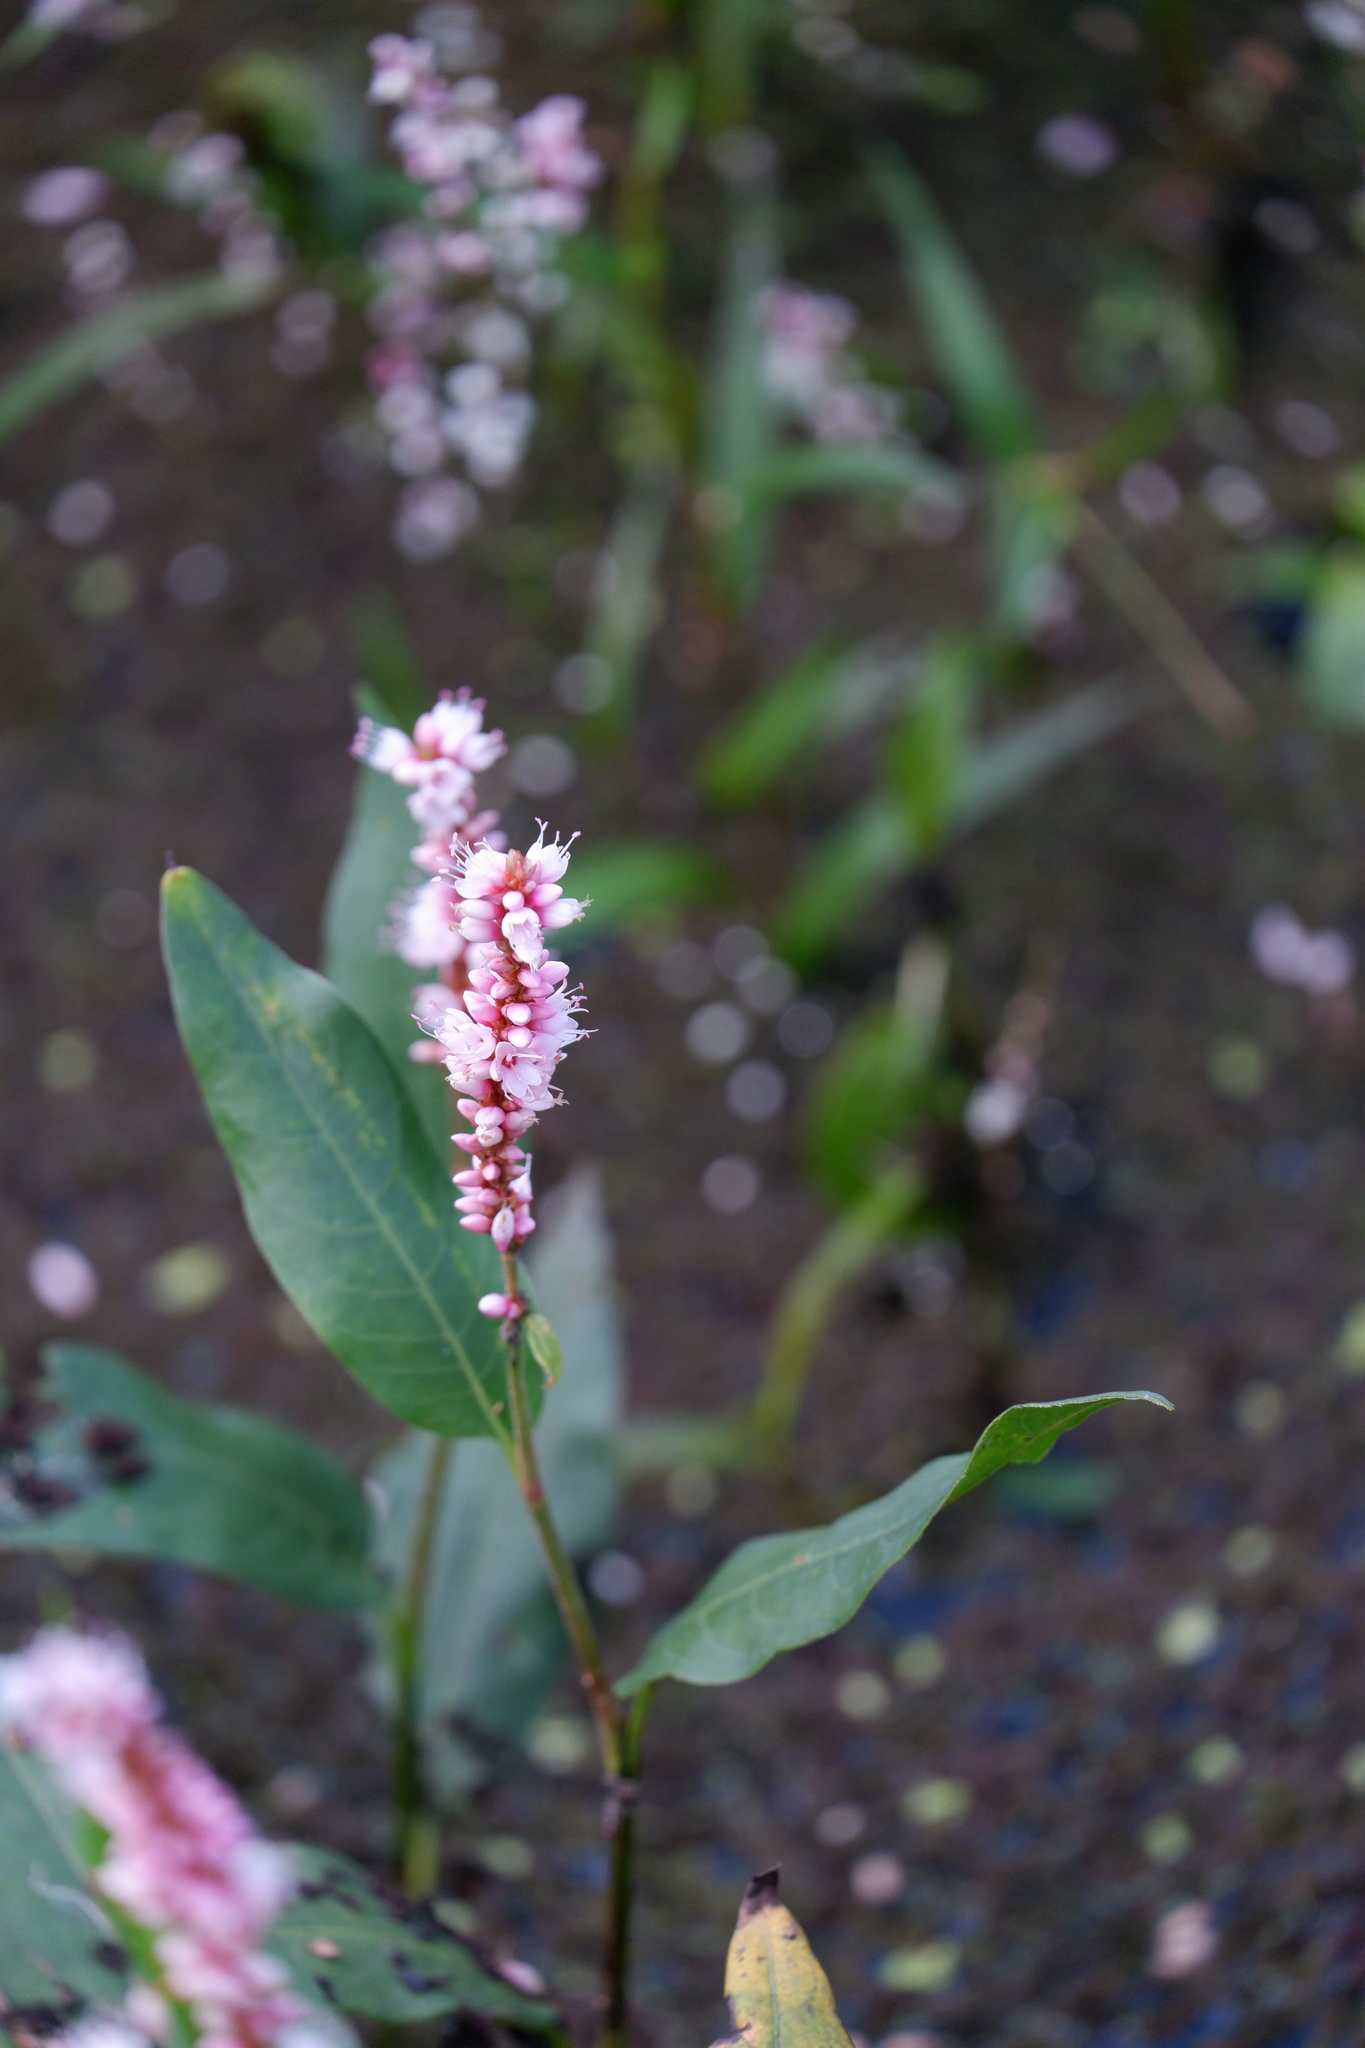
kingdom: Plantae
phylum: Tracheophyta
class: Magnoliopsida
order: Caryophyllales
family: Polygonaceae
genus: Persicaria
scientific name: Persicaria amphibia
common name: Amphibious bistort
